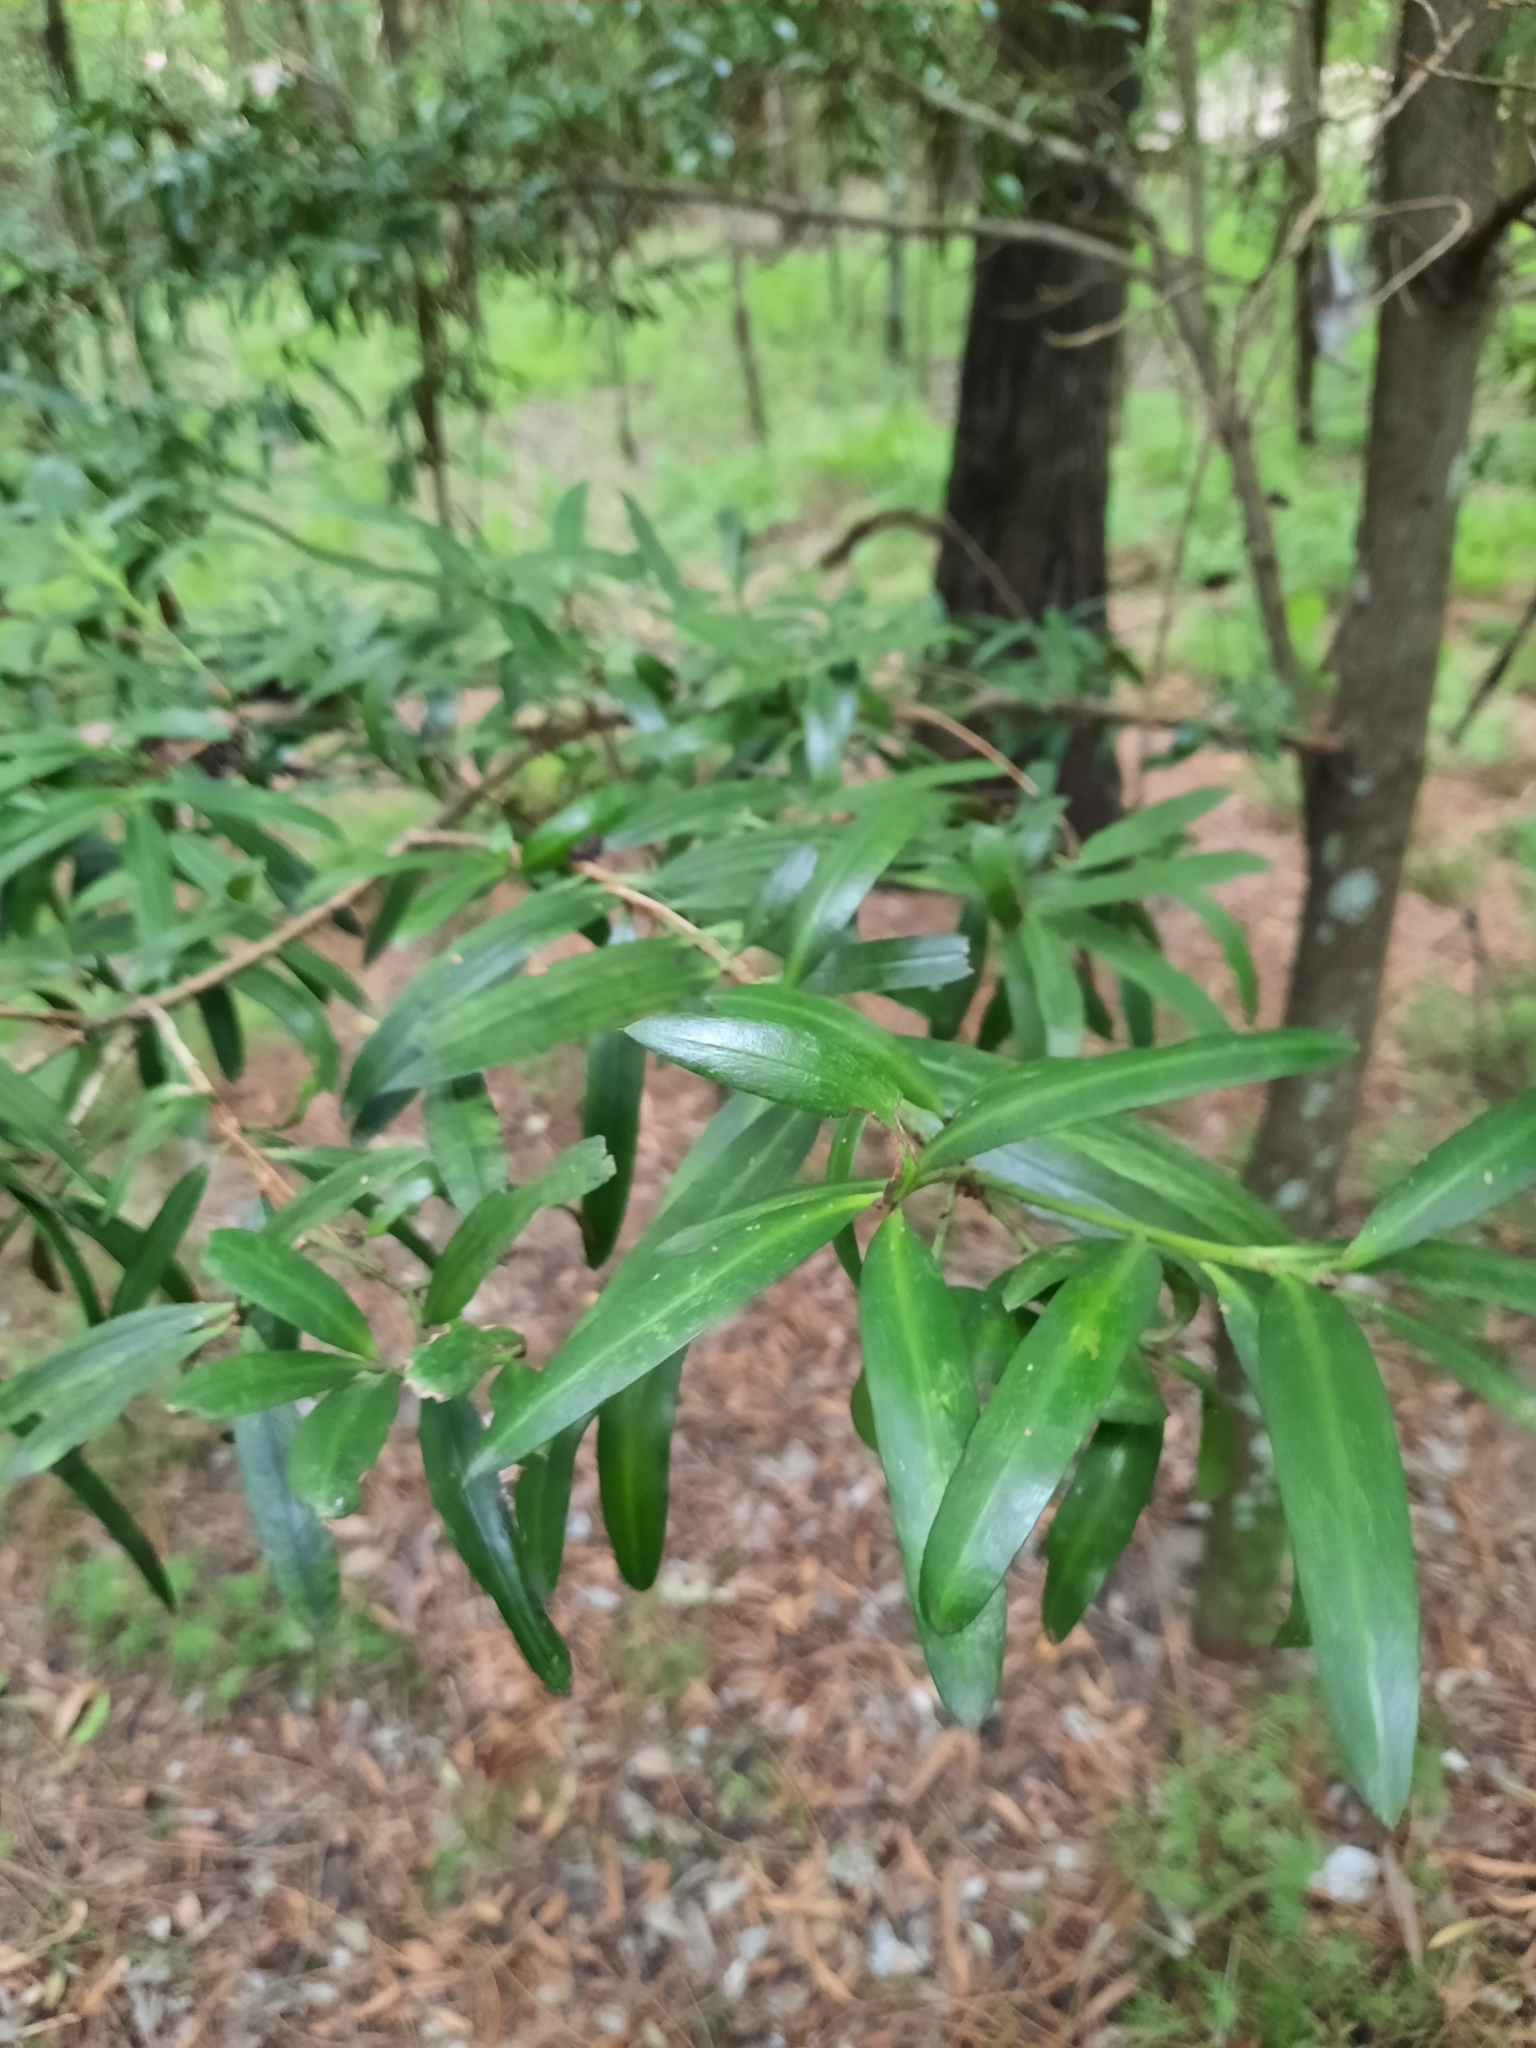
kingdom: Plantae
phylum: Tracheophyta
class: Pinopsida
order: Pinales
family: Podocarpaceae
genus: Podocarpus
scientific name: Podocarpus elatus
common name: Plum pine
